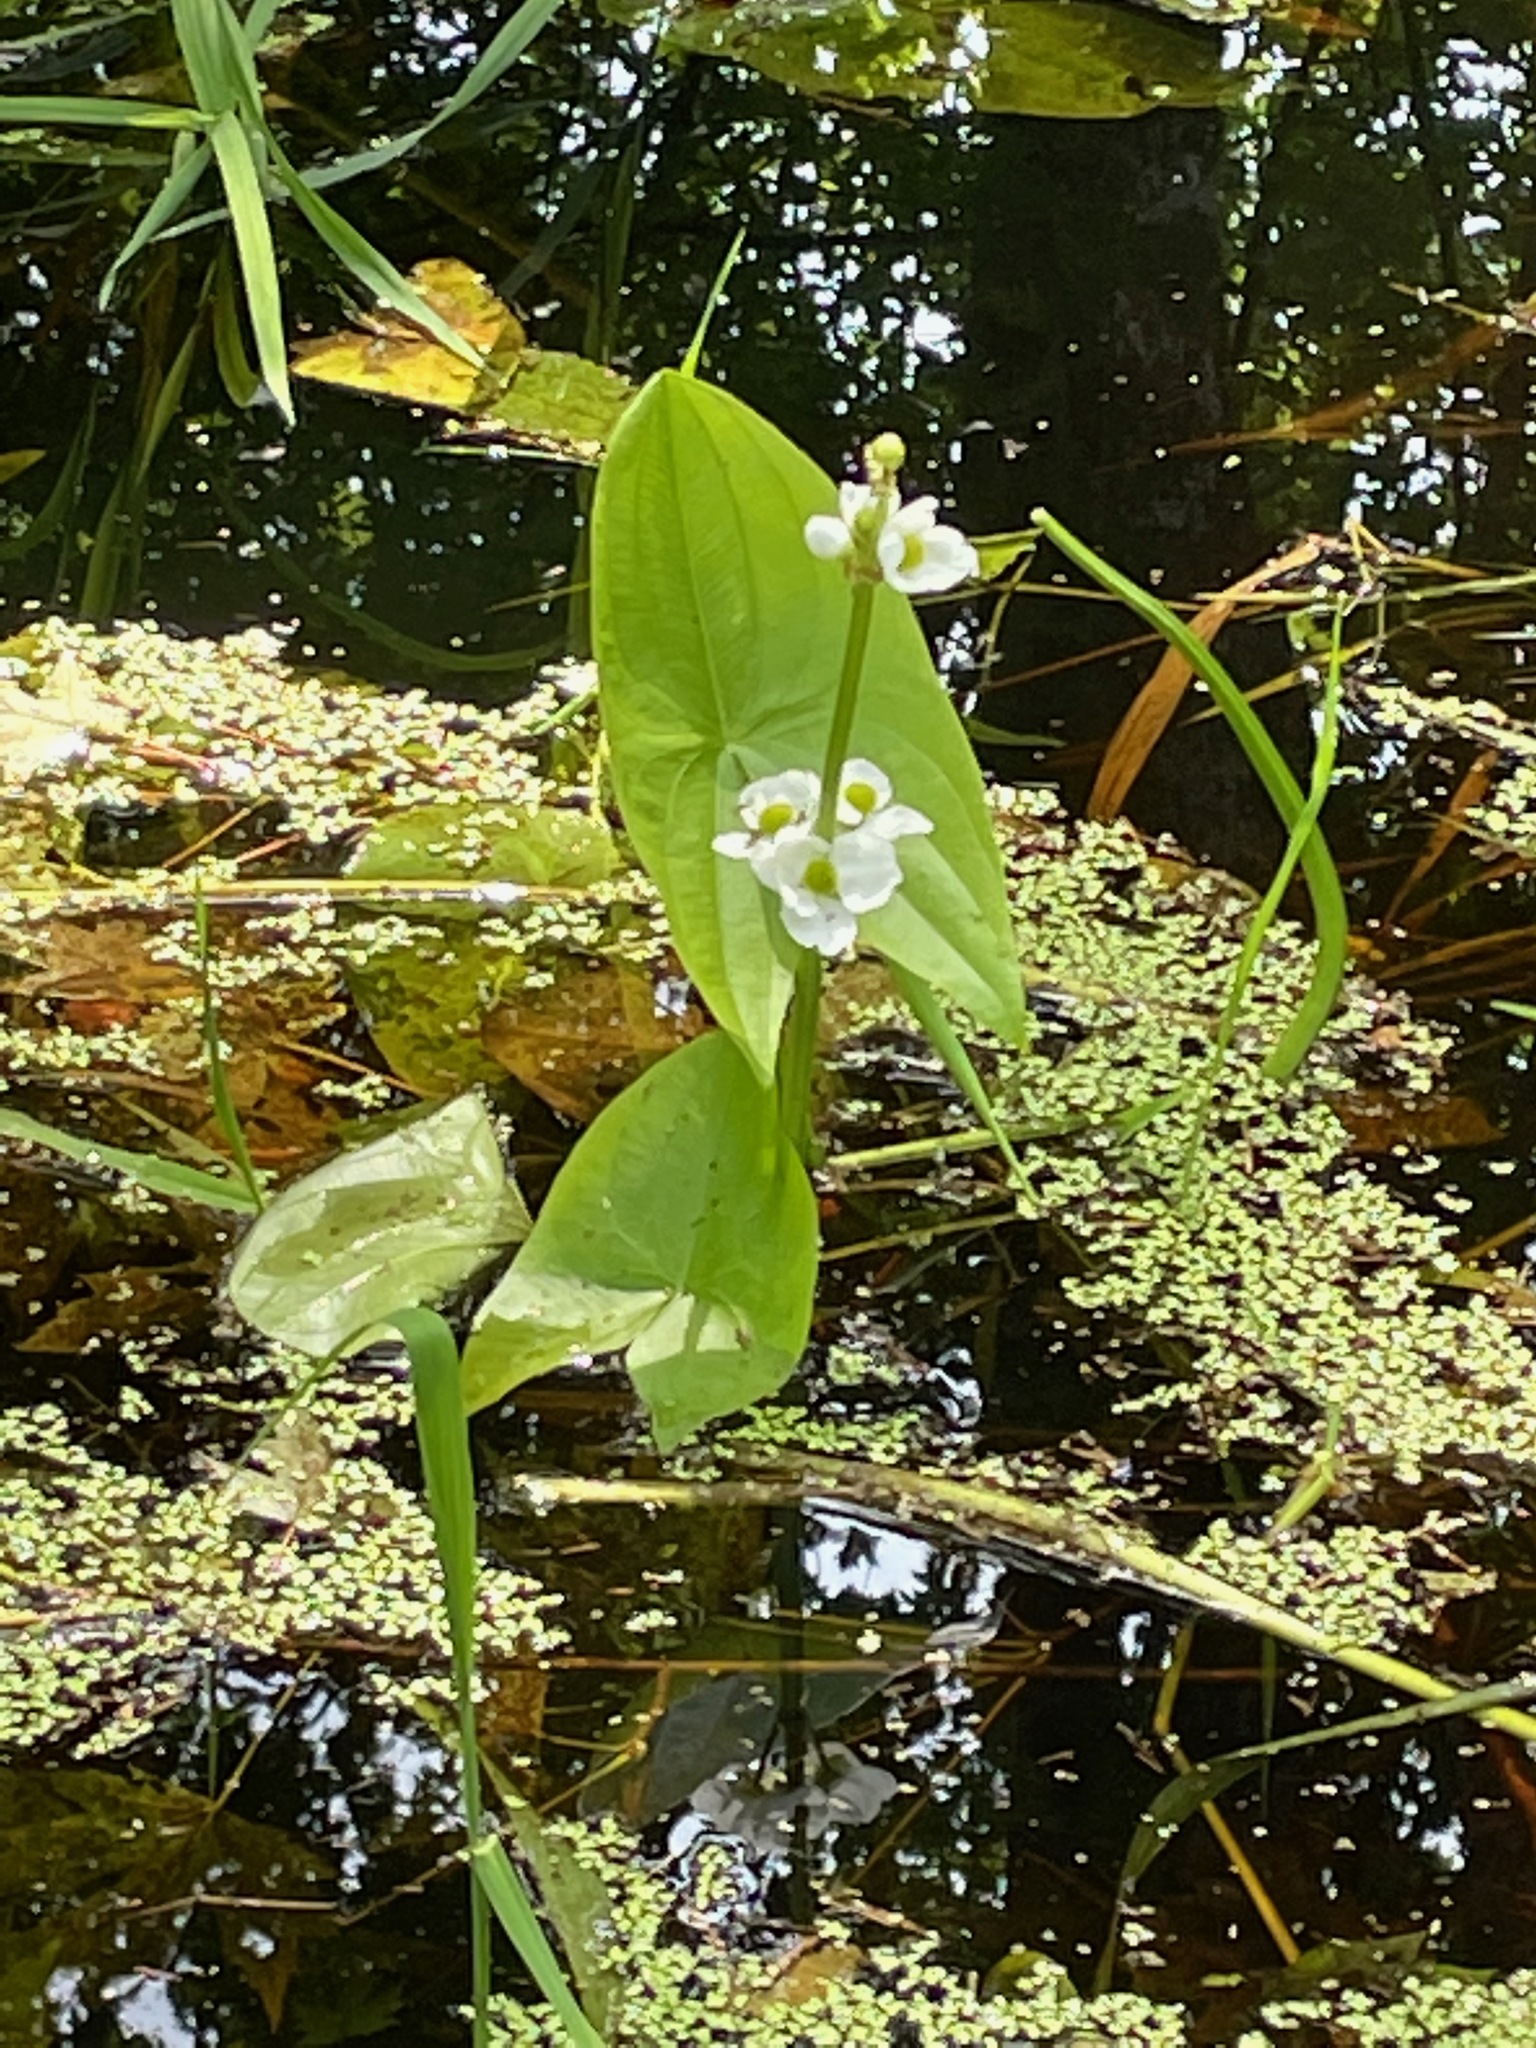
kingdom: Plantae
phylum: Tracheophyta
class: Liliopsida
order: Alismatales
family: Alismataceae
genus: Sagittaria
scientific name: Sagittaria latifolia
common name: Duck-potato
